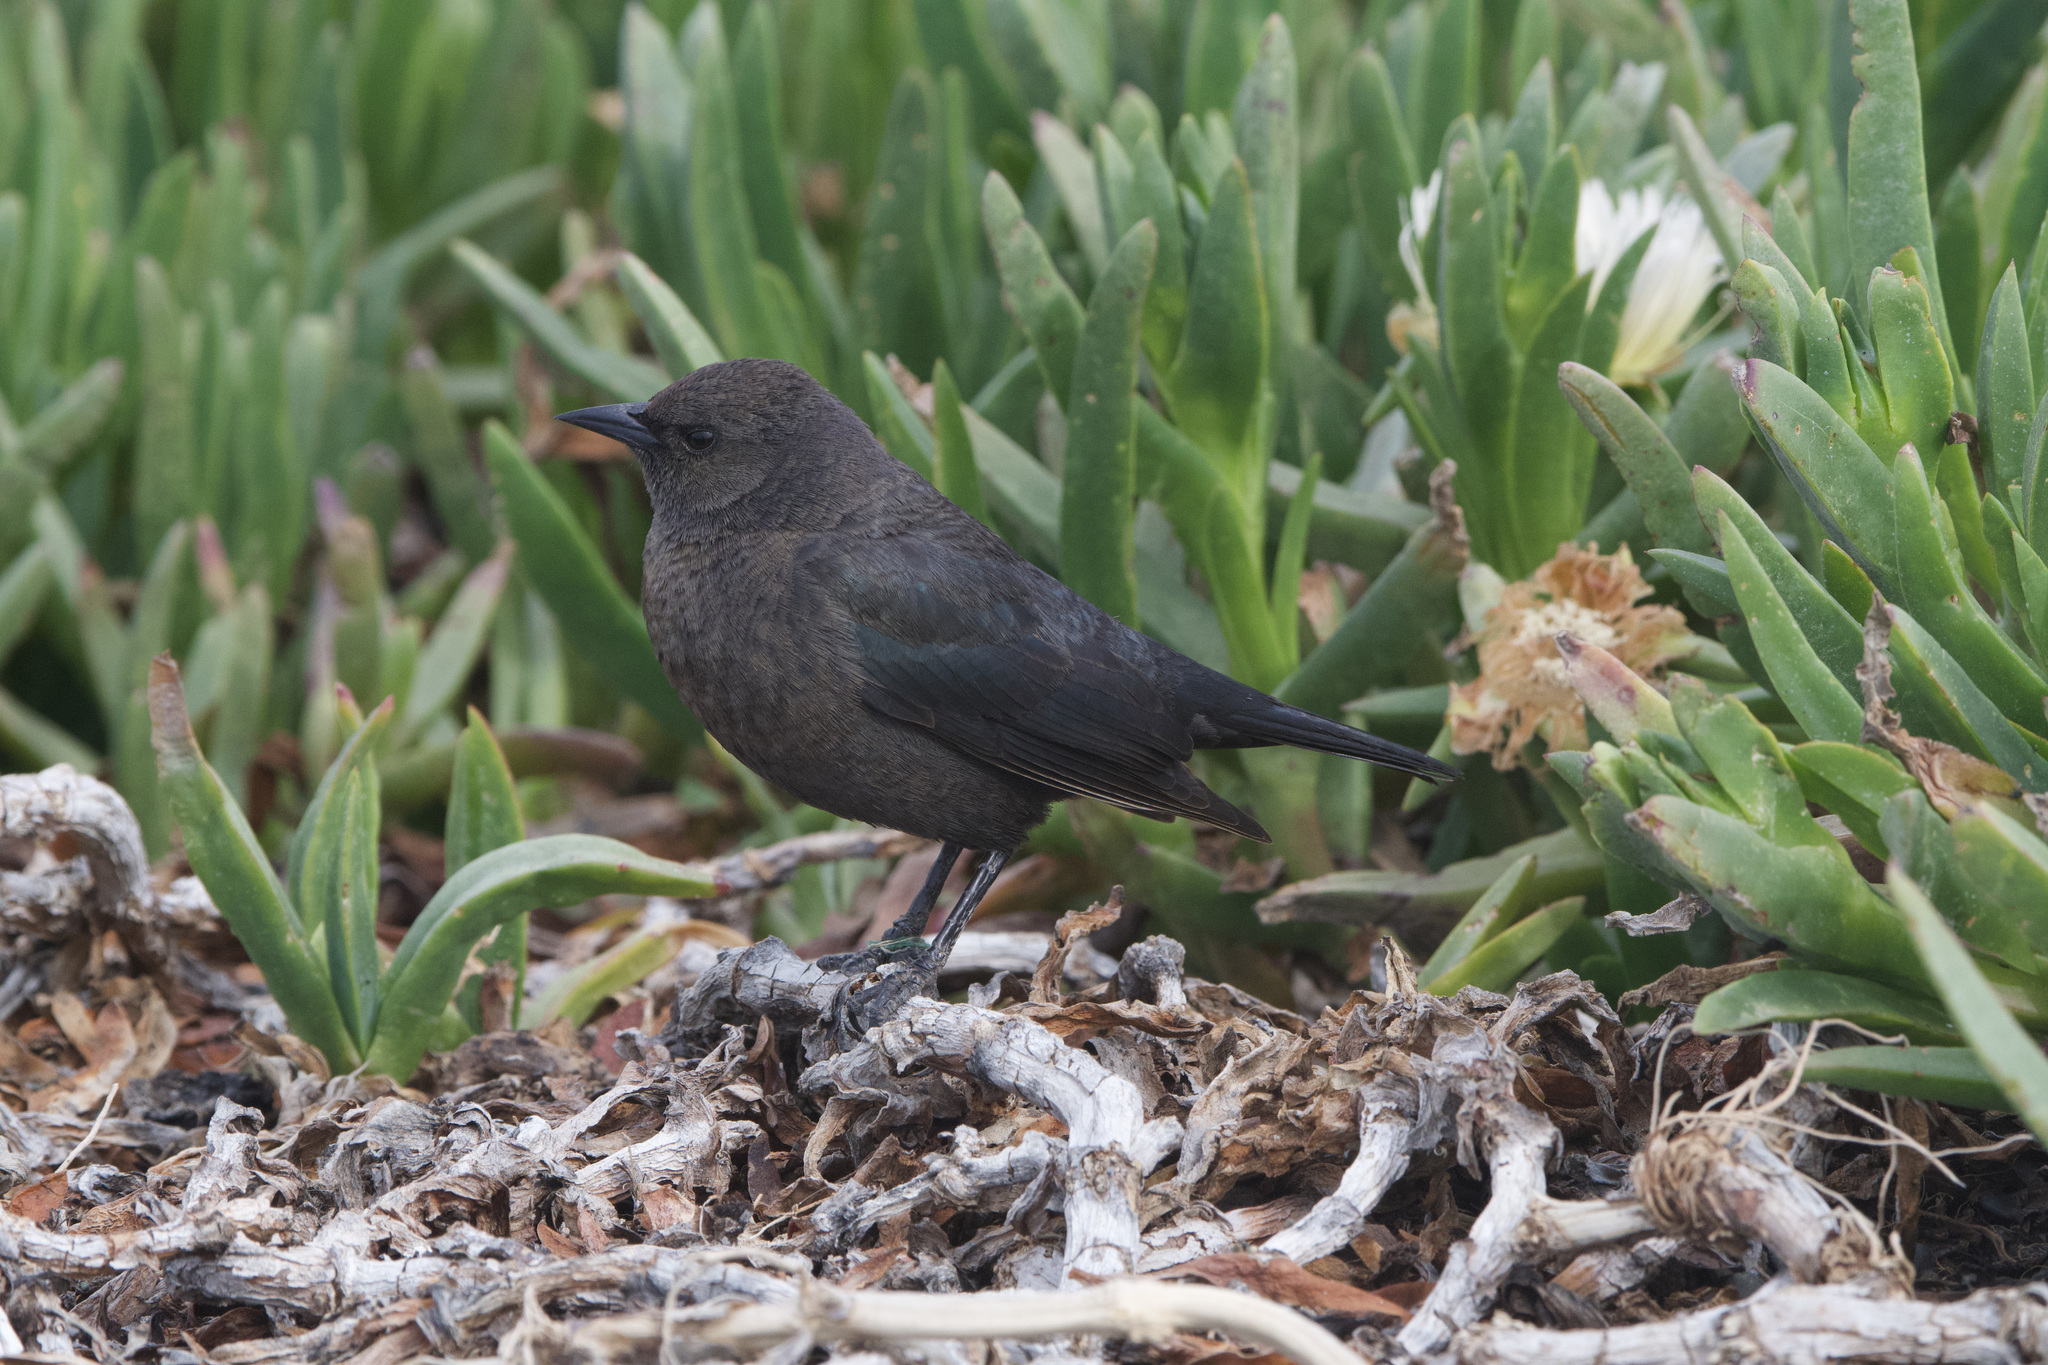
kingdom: Animalia
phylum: Chordata
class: Aves
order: Passeriformes
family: Icteridae
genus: Euphagus
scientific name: Euphagus cyanocephalus
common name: Brewer's blackbird
